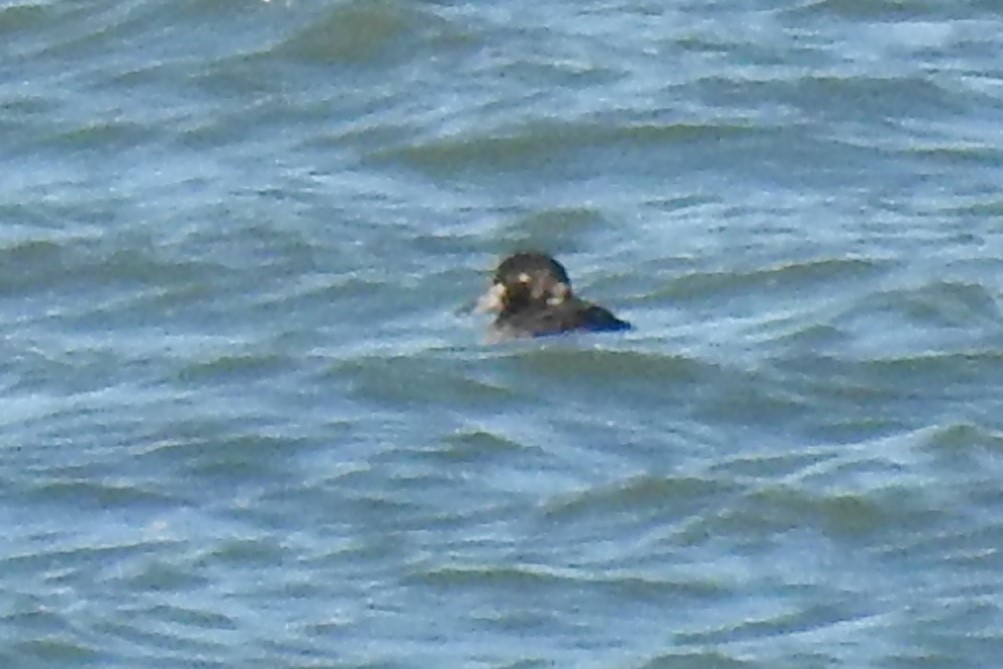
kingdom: Animalia
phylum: Chordata
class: Aves
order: Anseriformes
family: Anatidae
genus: Melanitta
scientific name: Melanitta perspicillata
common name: Surf scoter
